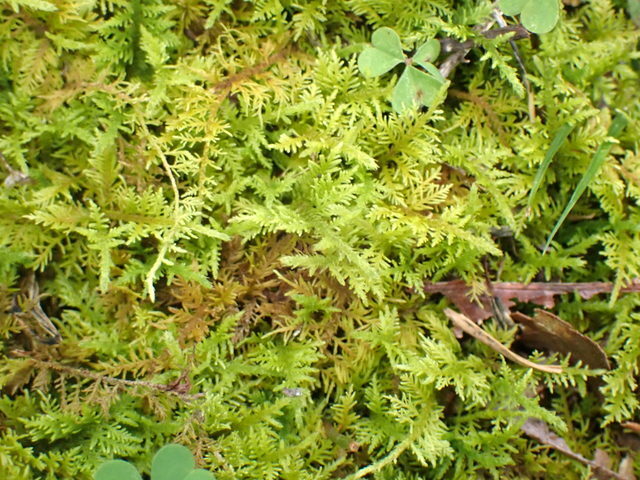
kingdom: Plantae
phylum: Bryophyta
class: Bryopsida
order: Hypnales
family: Thuidiaceae
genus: Thuidium
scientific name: Thuidium delicatulum
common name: Delicate fern moss
